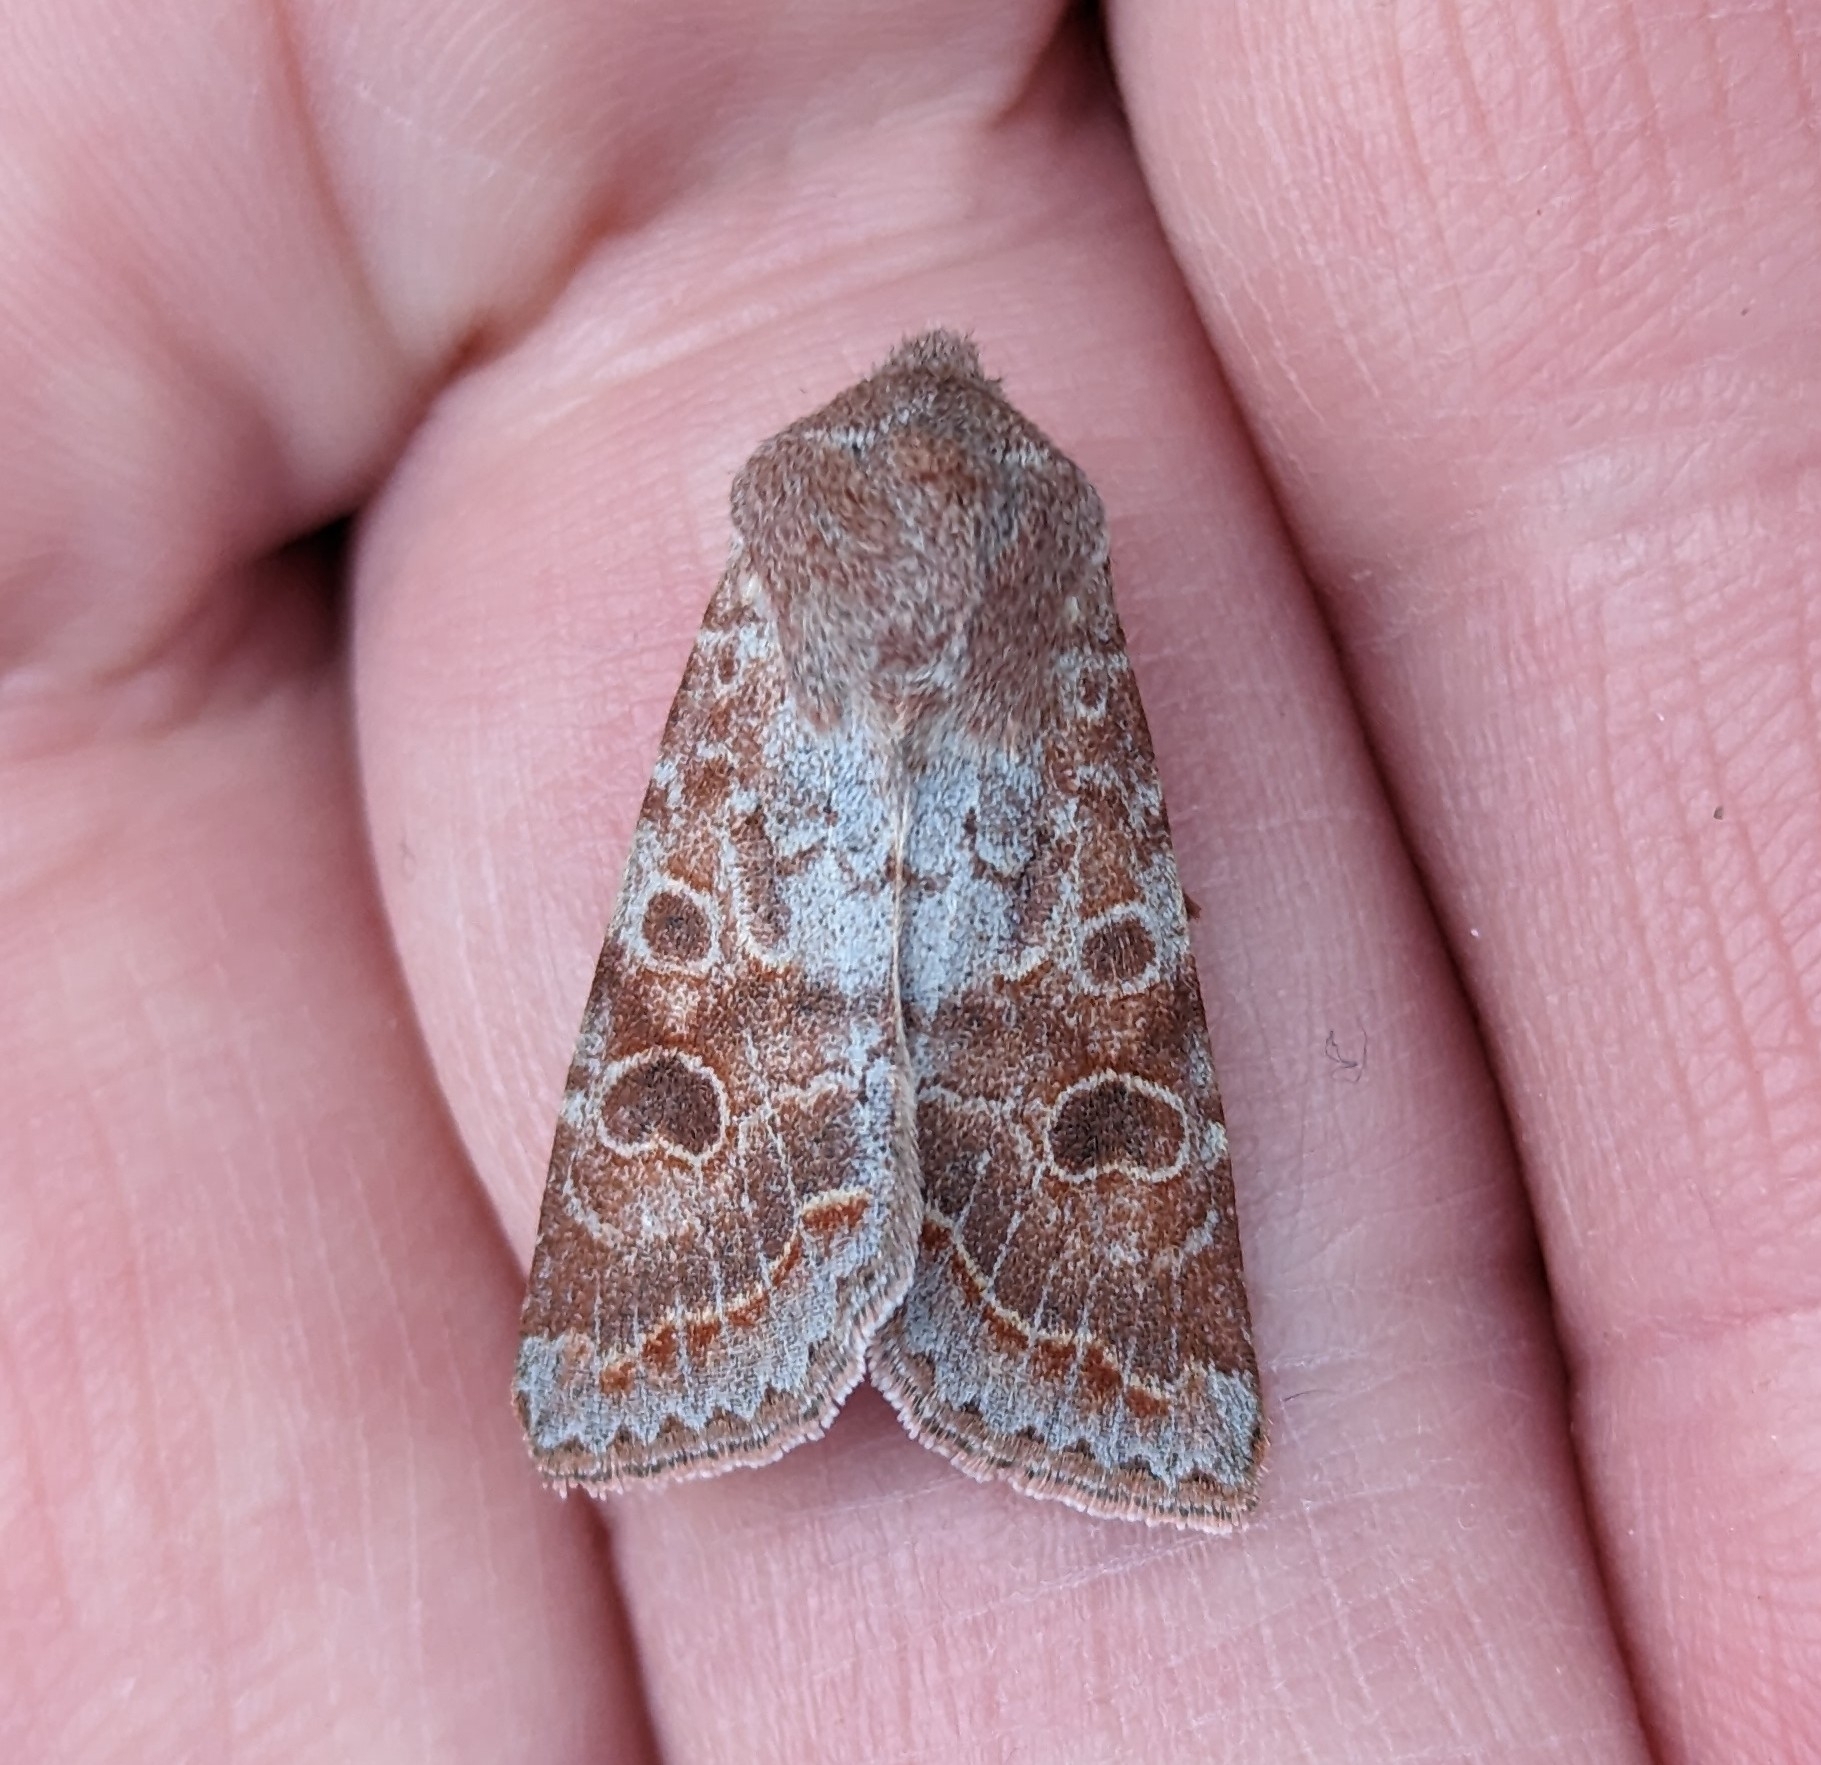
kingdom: Animalia
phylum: Arthropoda
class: Insecta
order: Lepidoptera
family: Noctuidae
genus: Orthosia
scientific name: Orthosia revicta
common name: Rusty whitesided caterpillar
